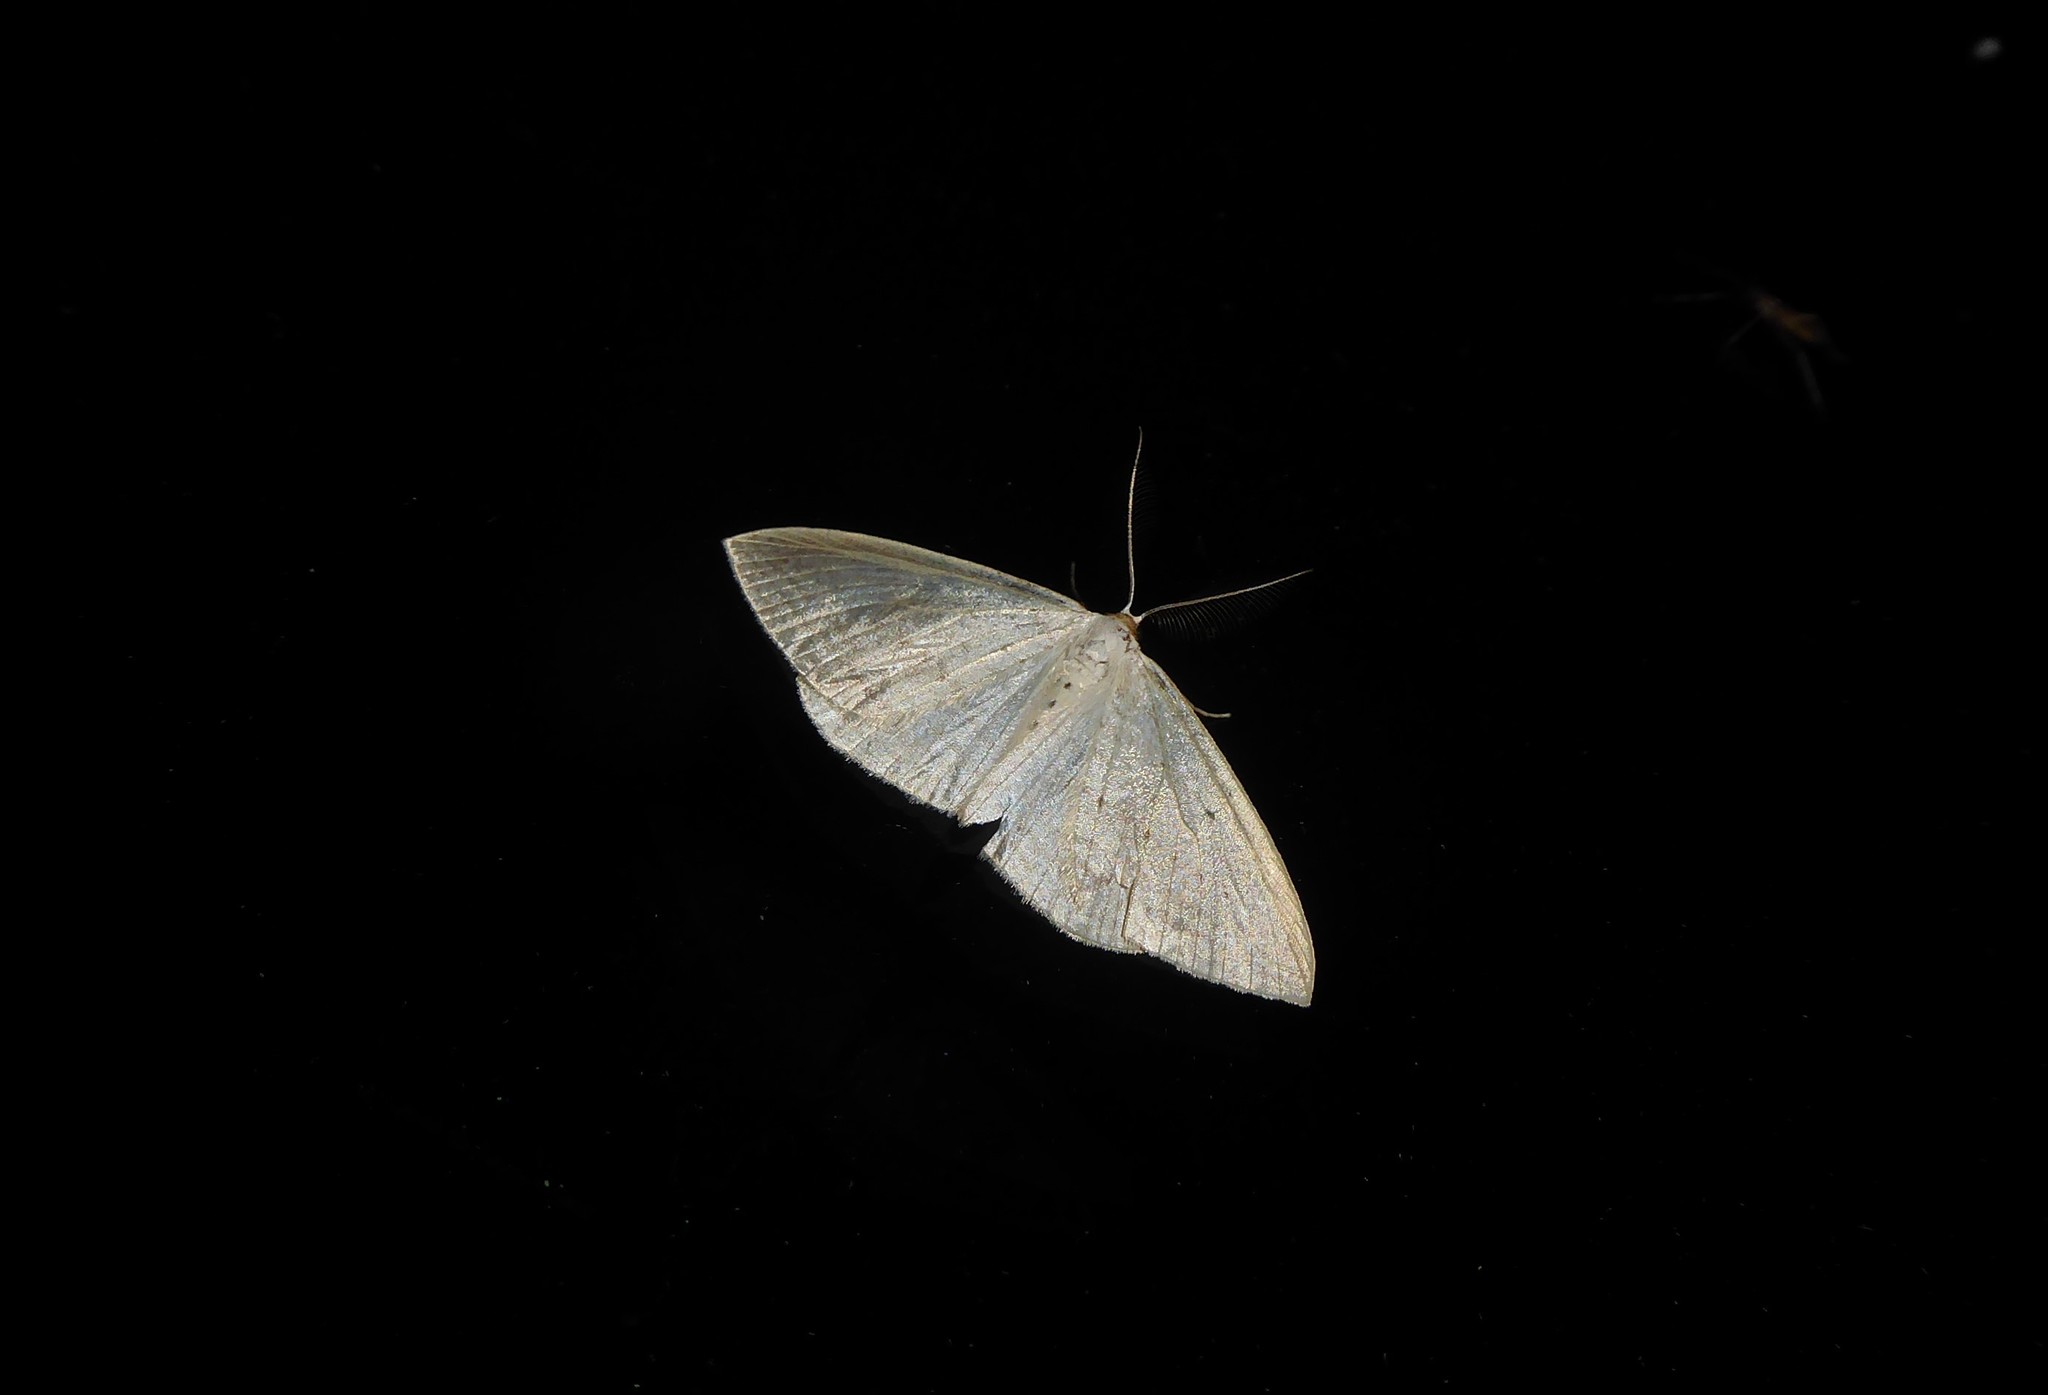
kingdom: Animalia
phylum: Arthropoda
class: Insecta
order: Lepidoptera
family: Geometridae
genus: Orthoclydon
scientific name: Orthoclydon praefectata
